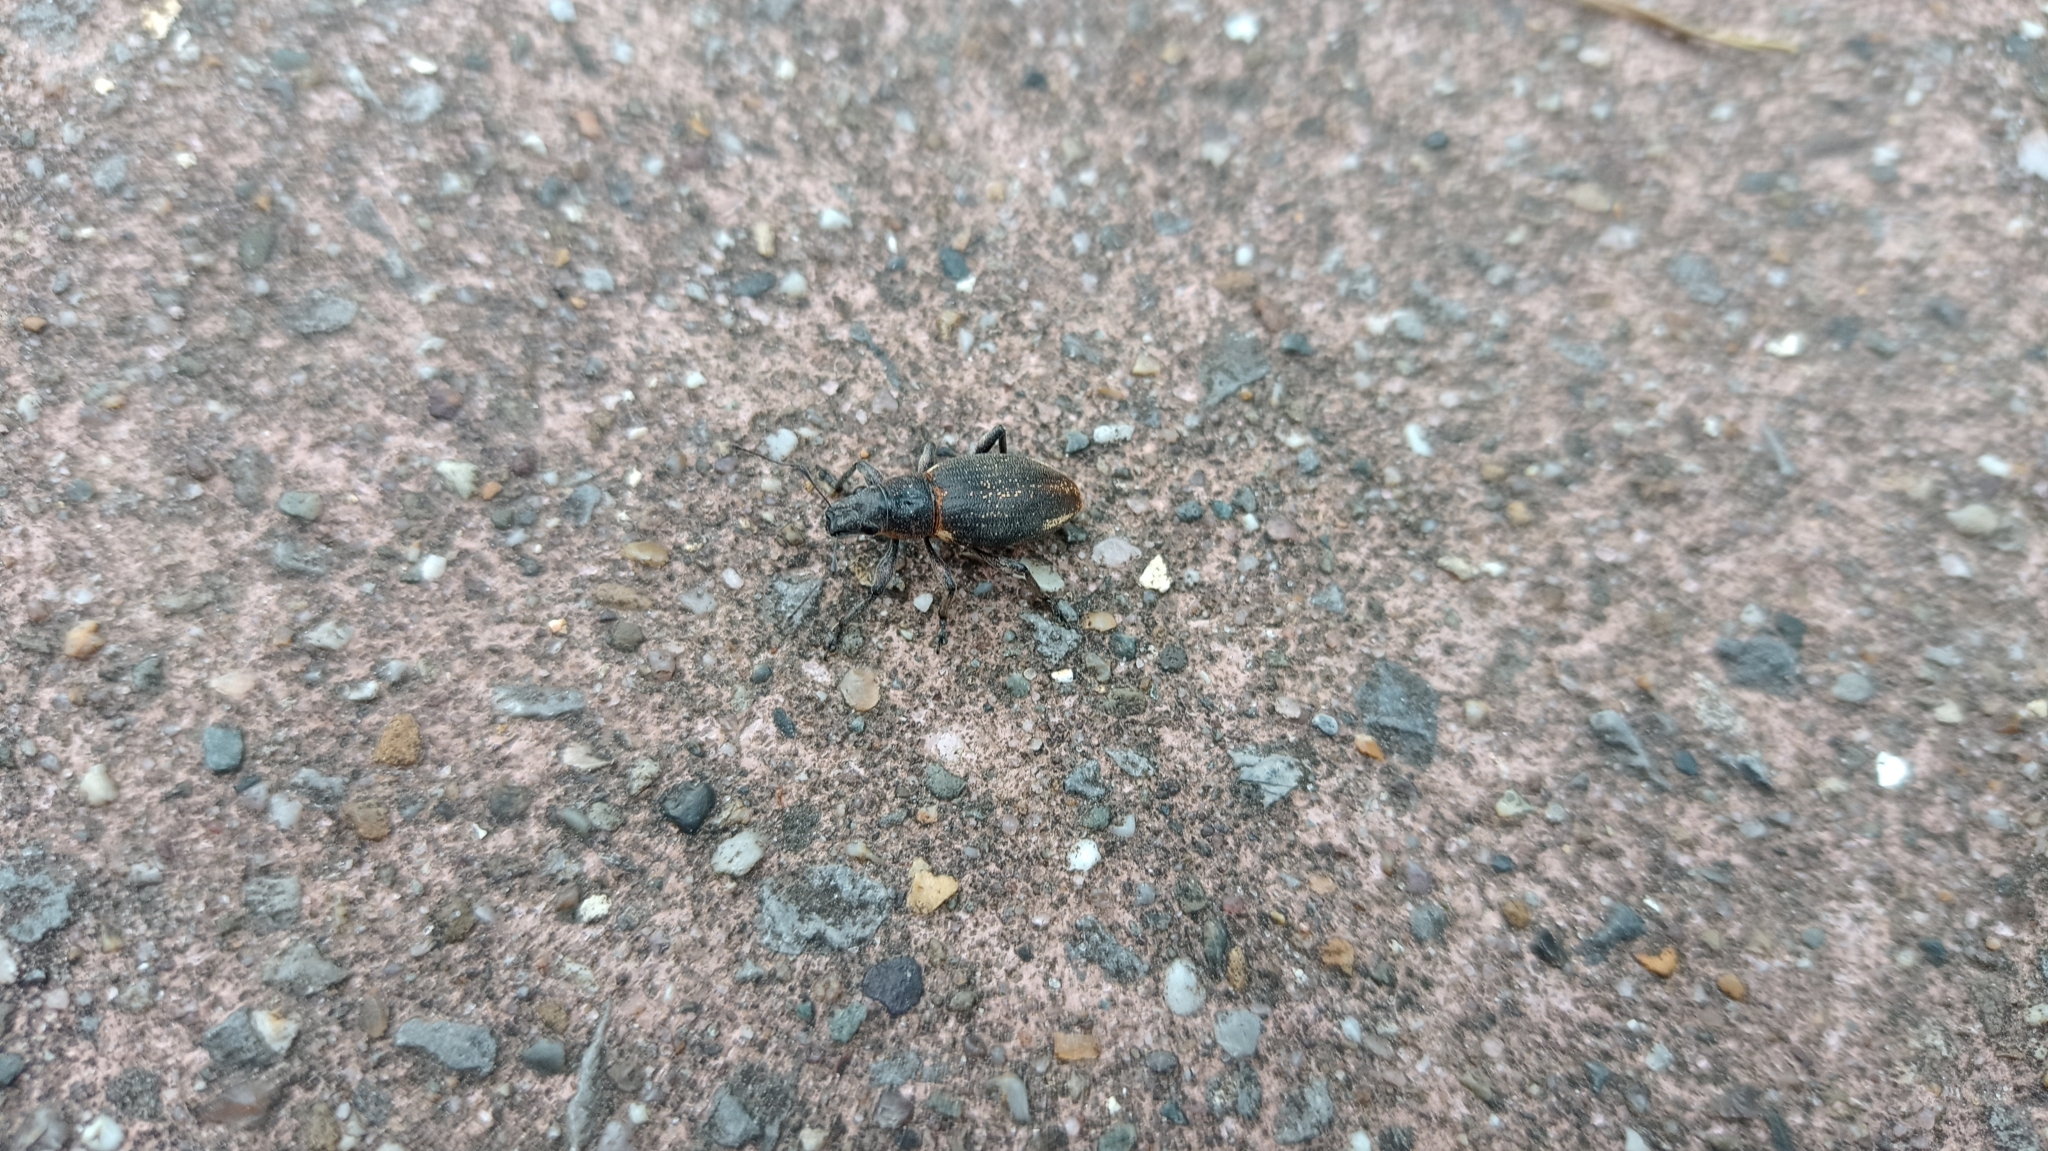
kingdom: Animalia
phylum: Arthropoda
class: Insecta
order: Coleoptera
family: Curculionidae
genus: Brachyderes
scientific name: Brachyderes lusitanicus
